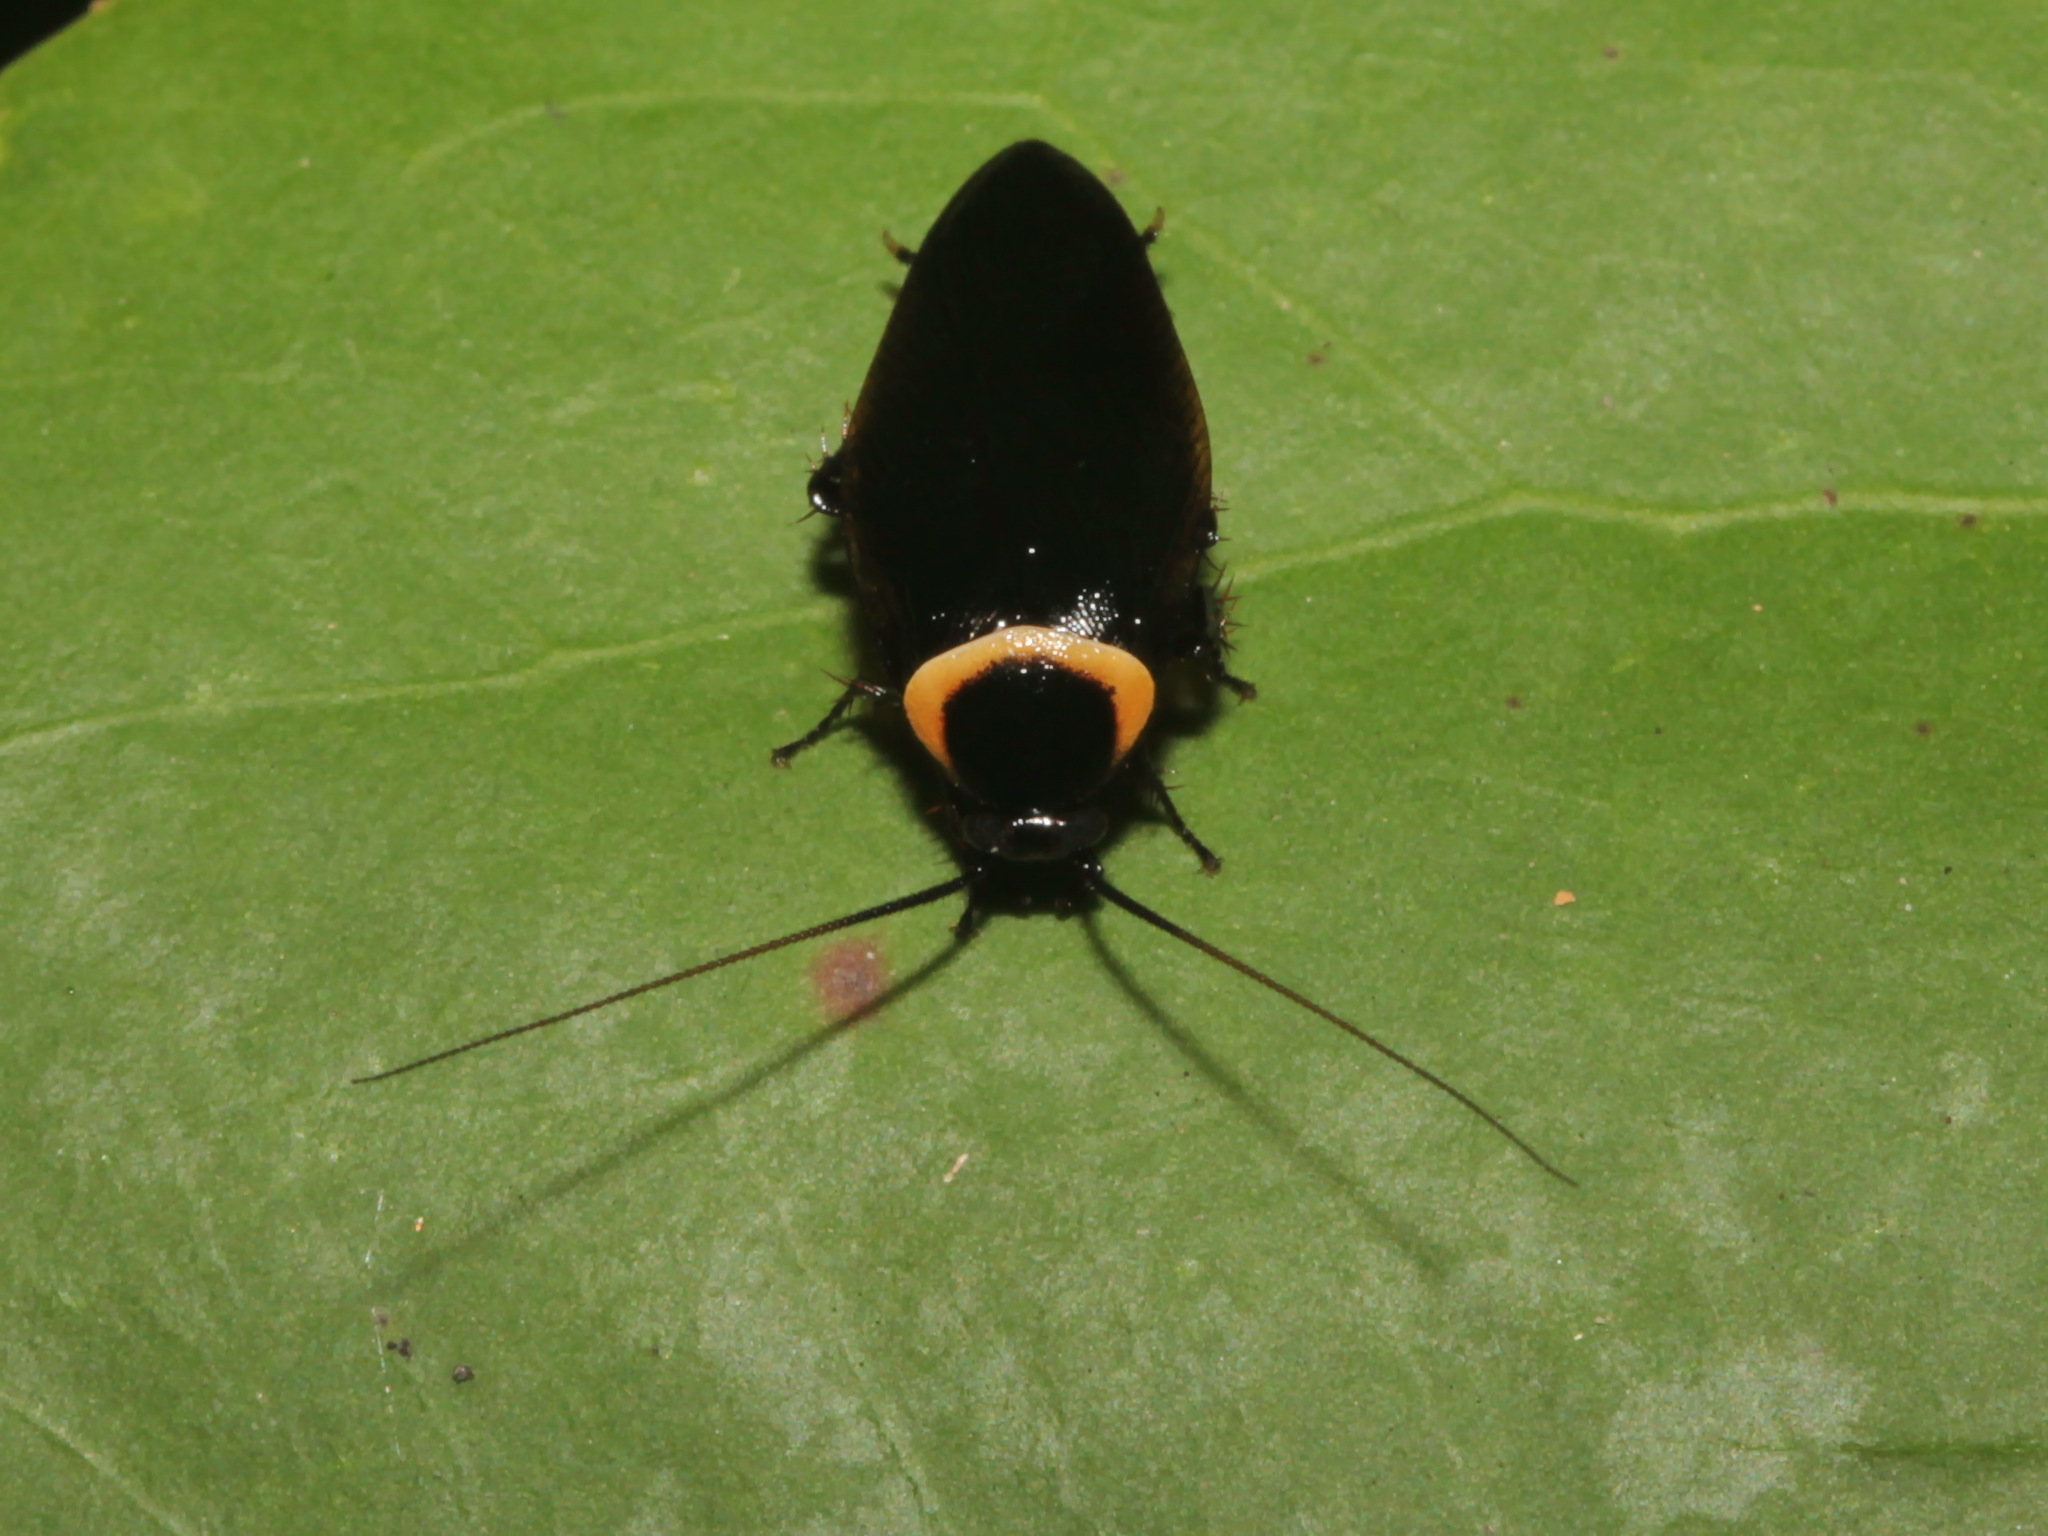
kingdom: Animalia
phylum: Arthropoda
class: Insecta
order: Blattodea
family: Ectobiidae
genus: Hemithyrsocera
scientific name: Hemithyrsocera palliata
